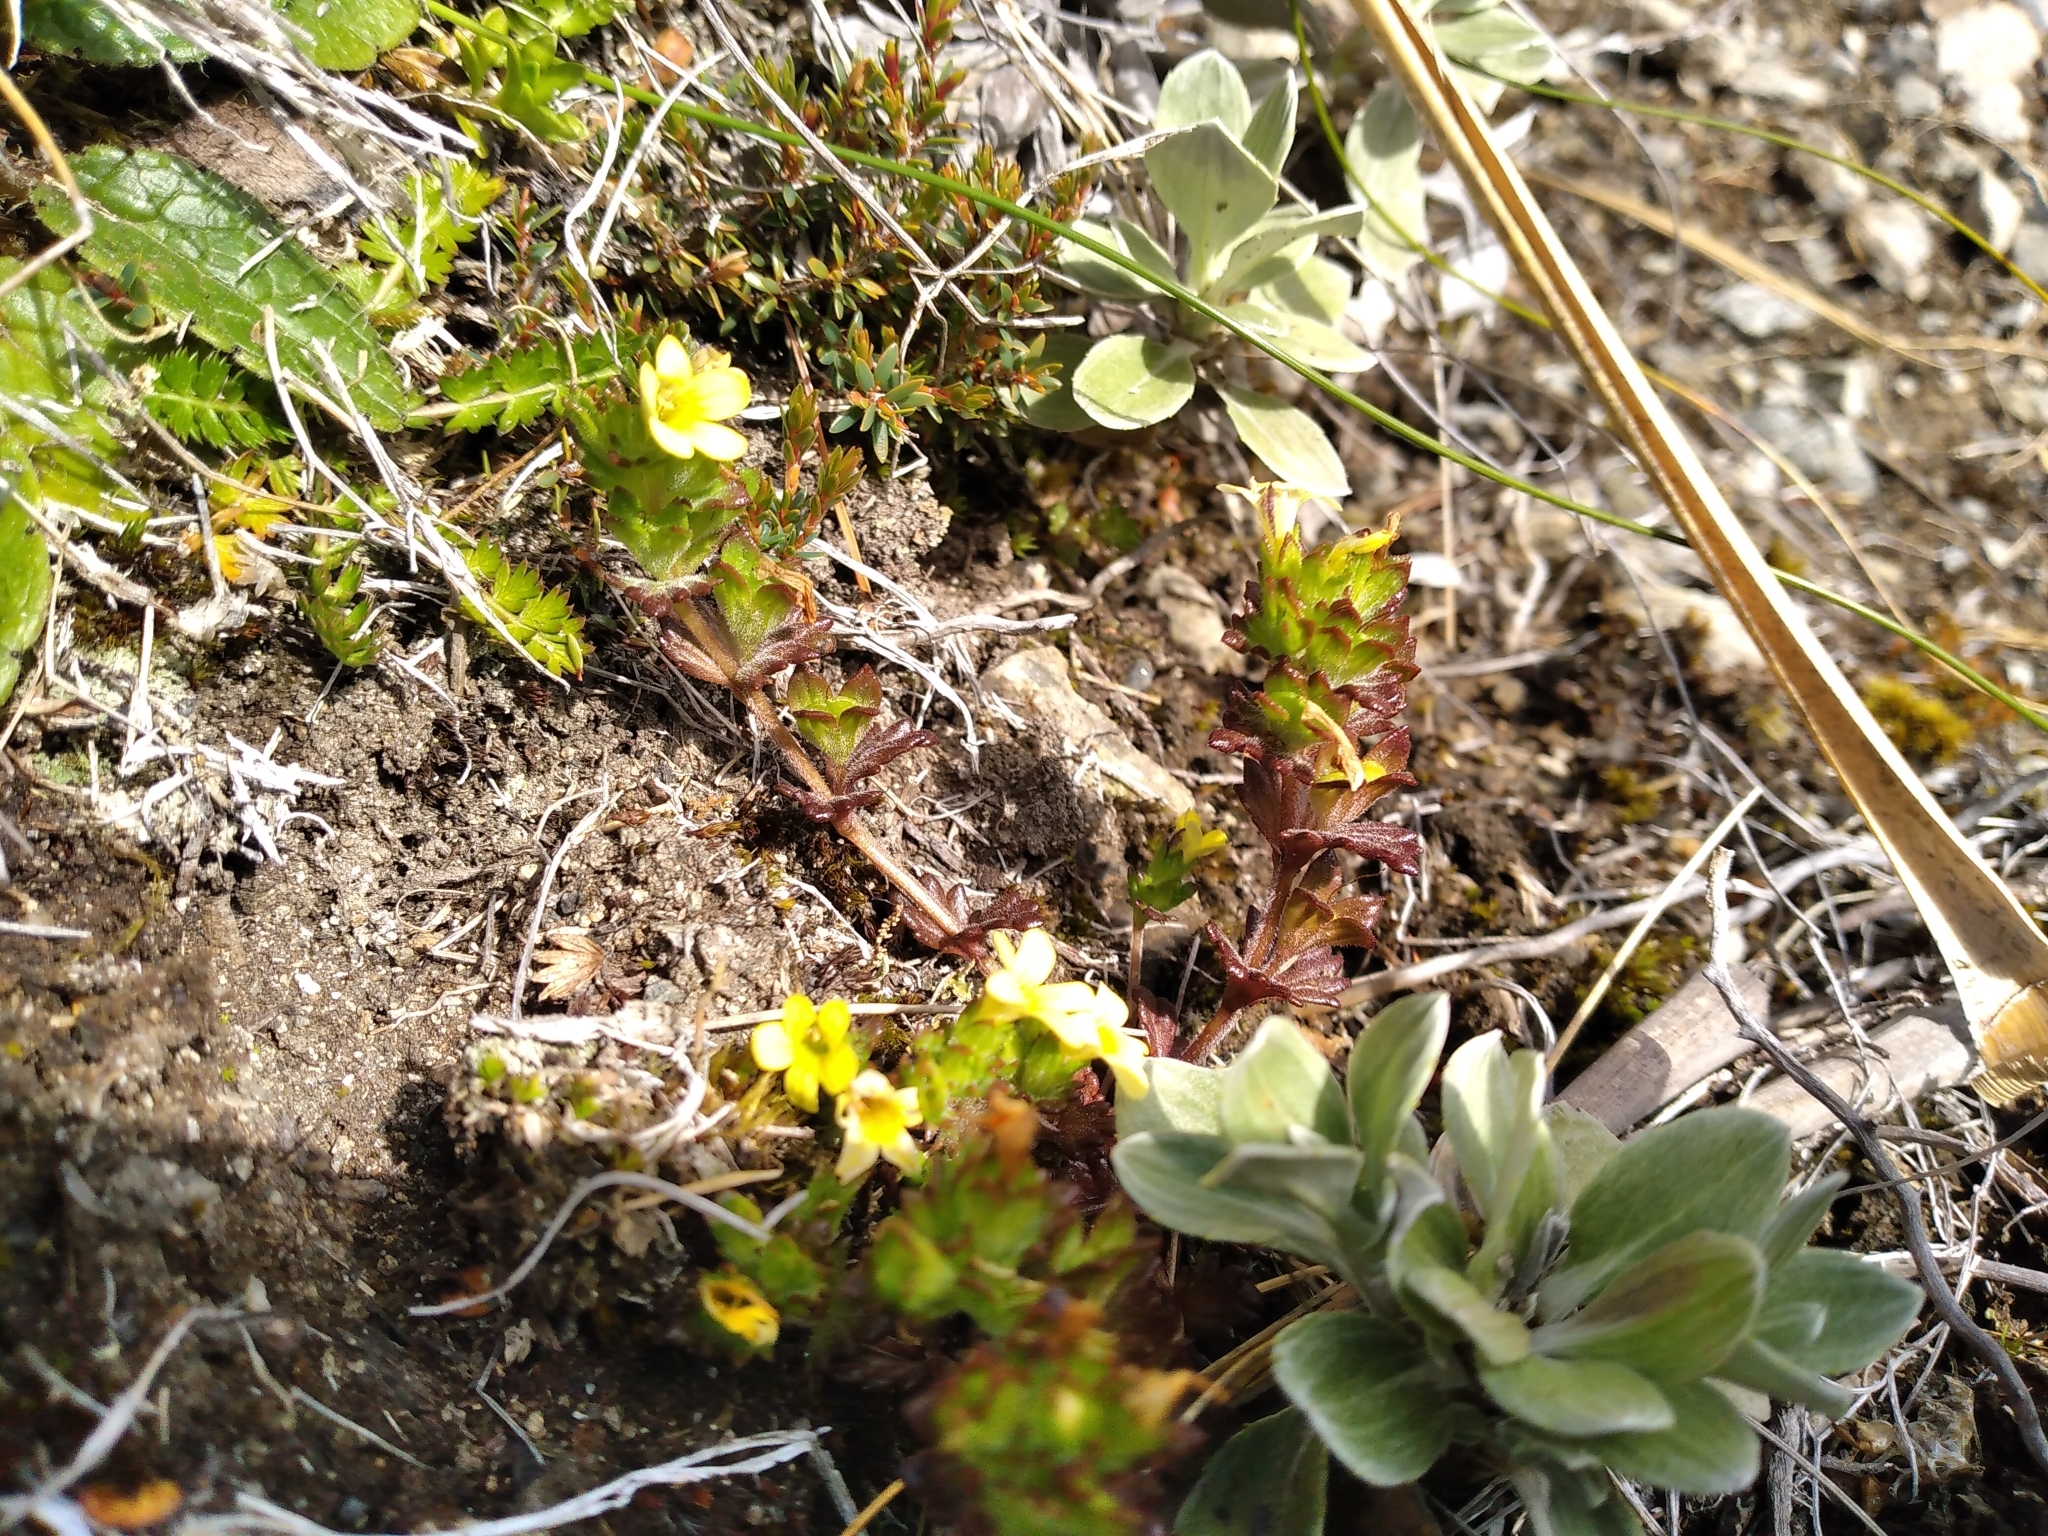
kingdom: Plantae
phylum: Tracheophyta
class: Magnoliopsida
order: Lamiales
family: Orobanchaceae
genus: Euphrasia
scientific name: Euphrasia cockayneana
